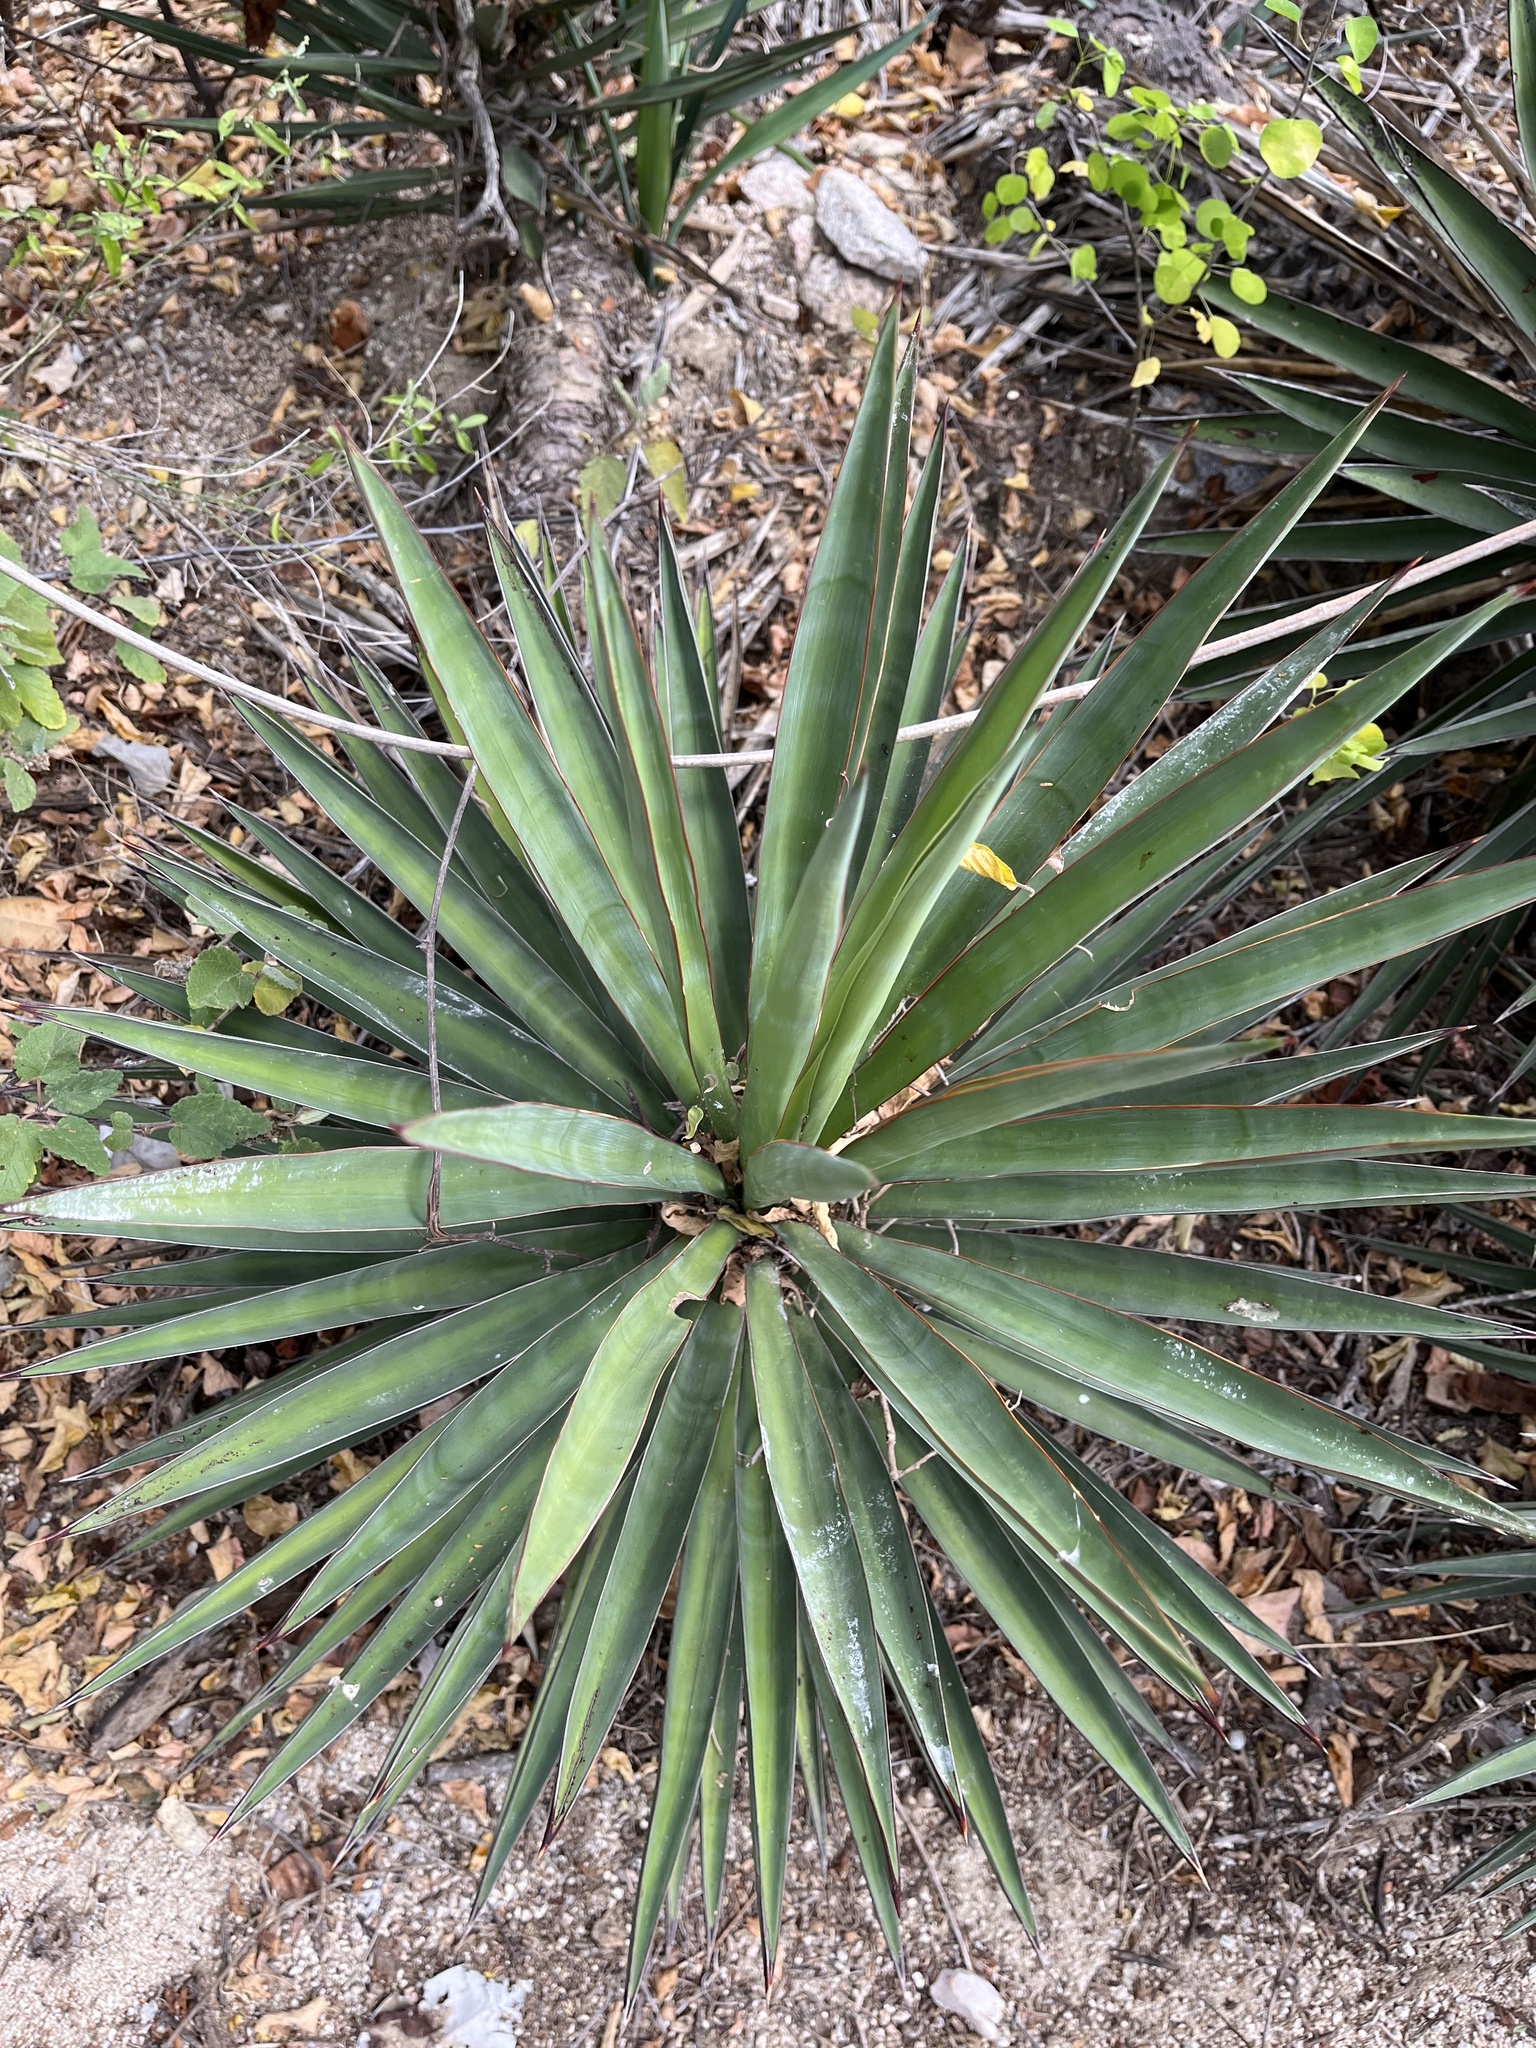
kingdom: Plantae
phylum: Tracheophyta
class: Liliopsida
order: Asparagales
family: Asparagaceae
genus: Yucca
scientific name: Yucca capensis
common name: Cape region yucca
